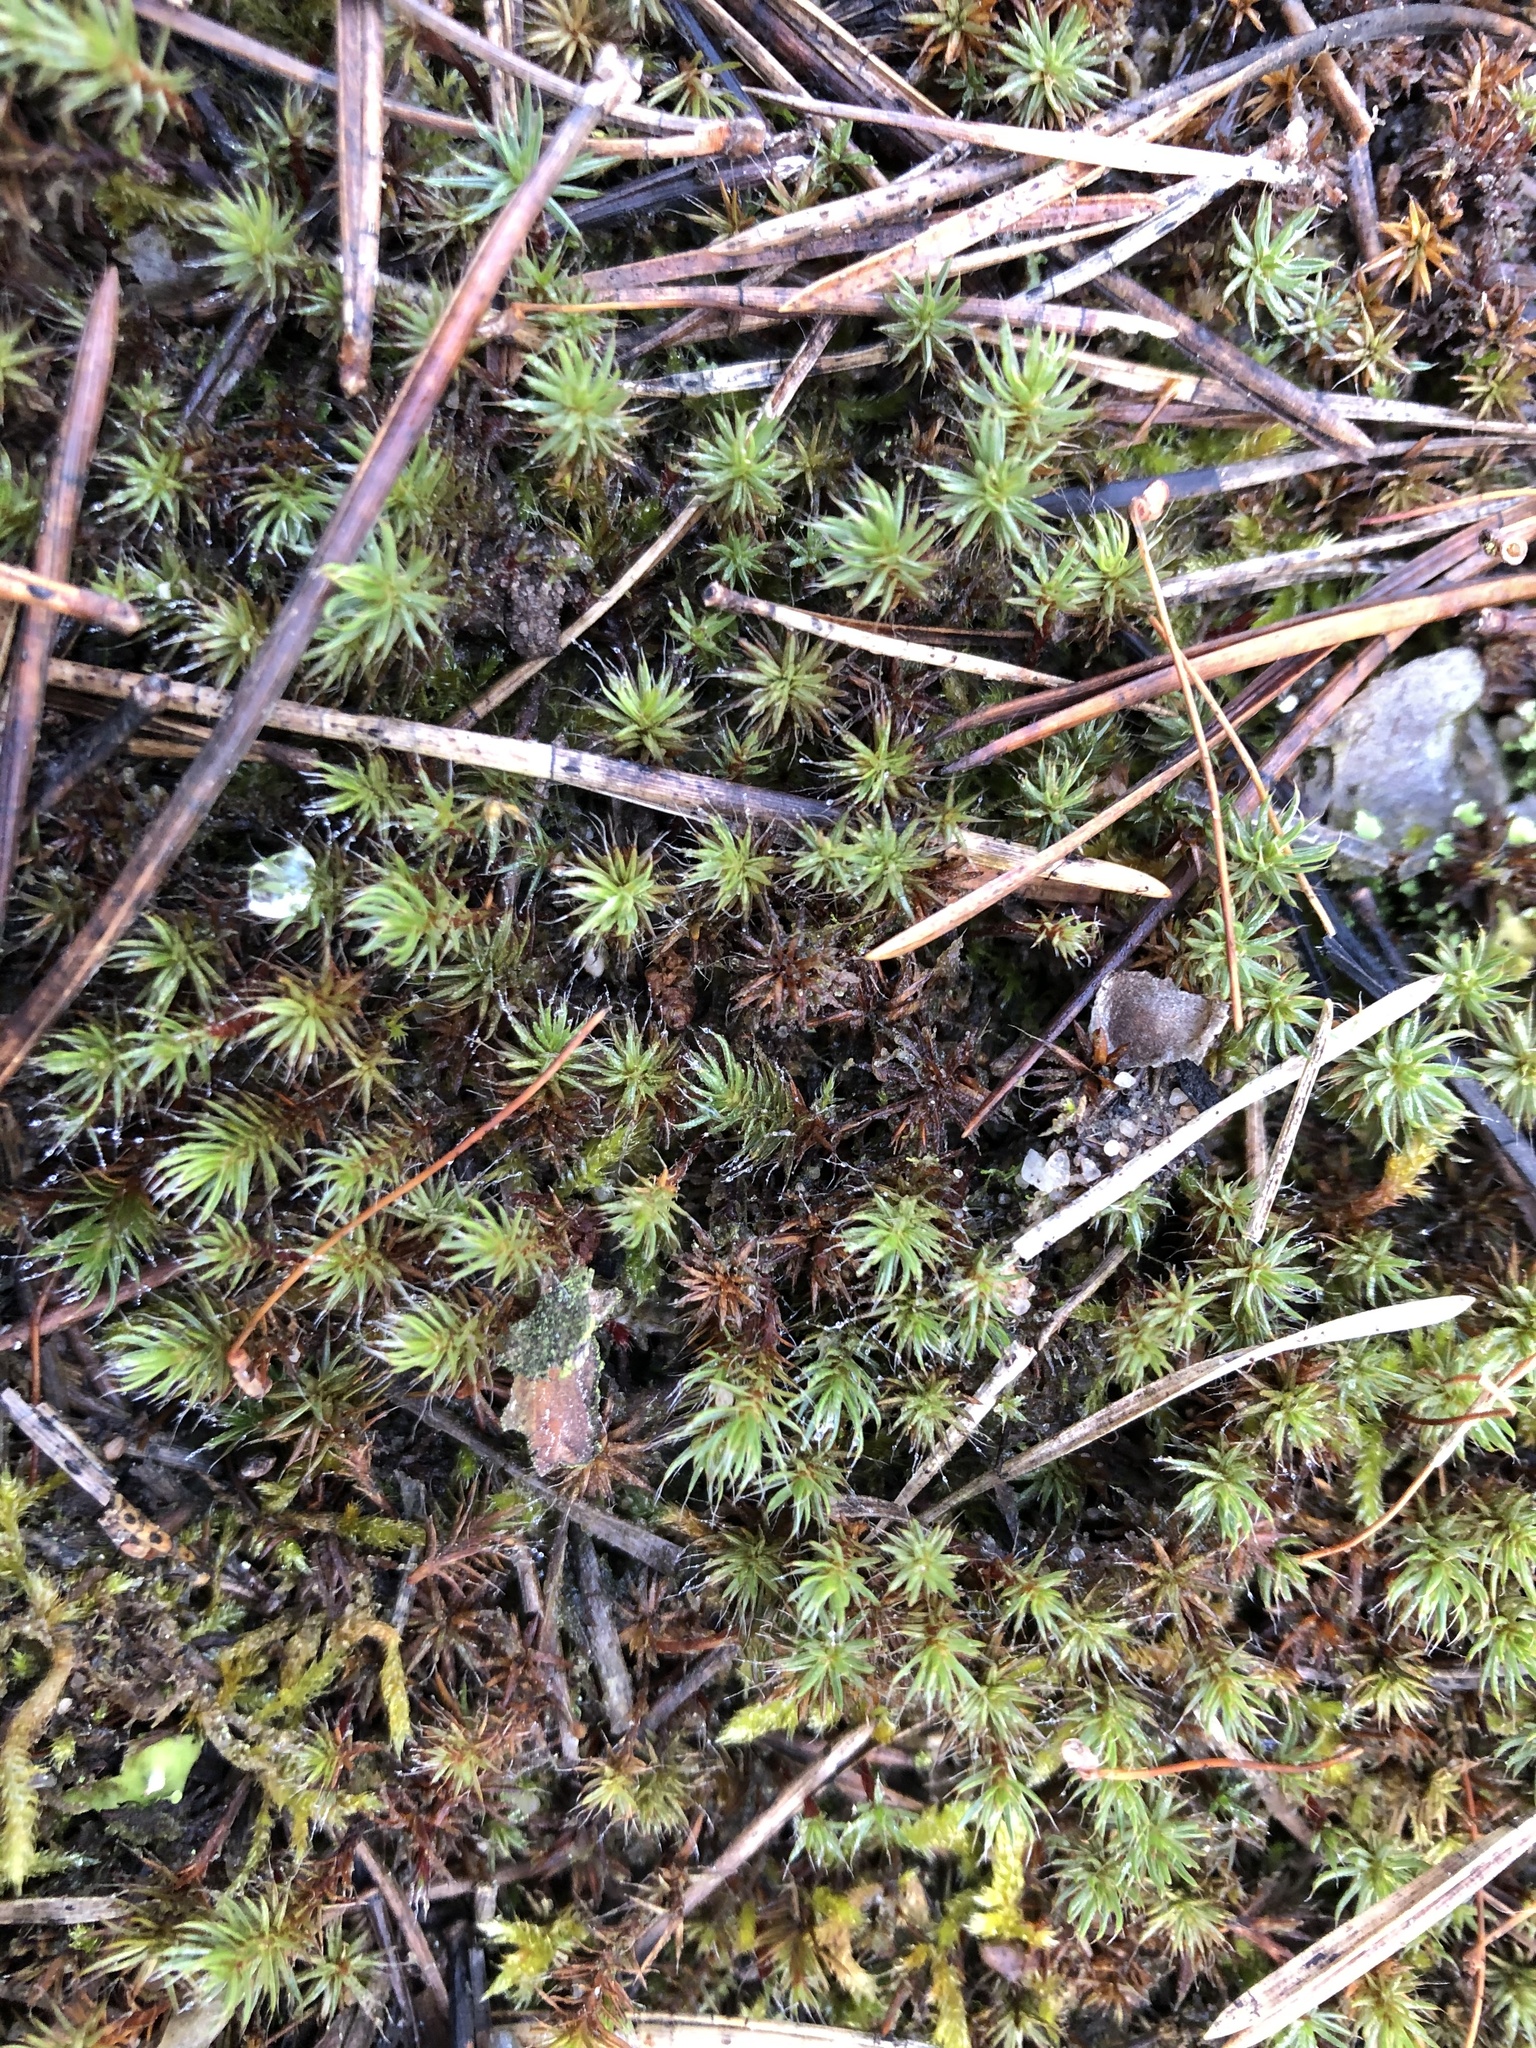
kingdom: Plantae
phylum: Bryophyta
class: Polytrichopsida
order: Polytrichales
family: Polytrichaceae
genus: Polytrichum
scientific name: Polytrichum piliferum
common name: Bristly haircap
